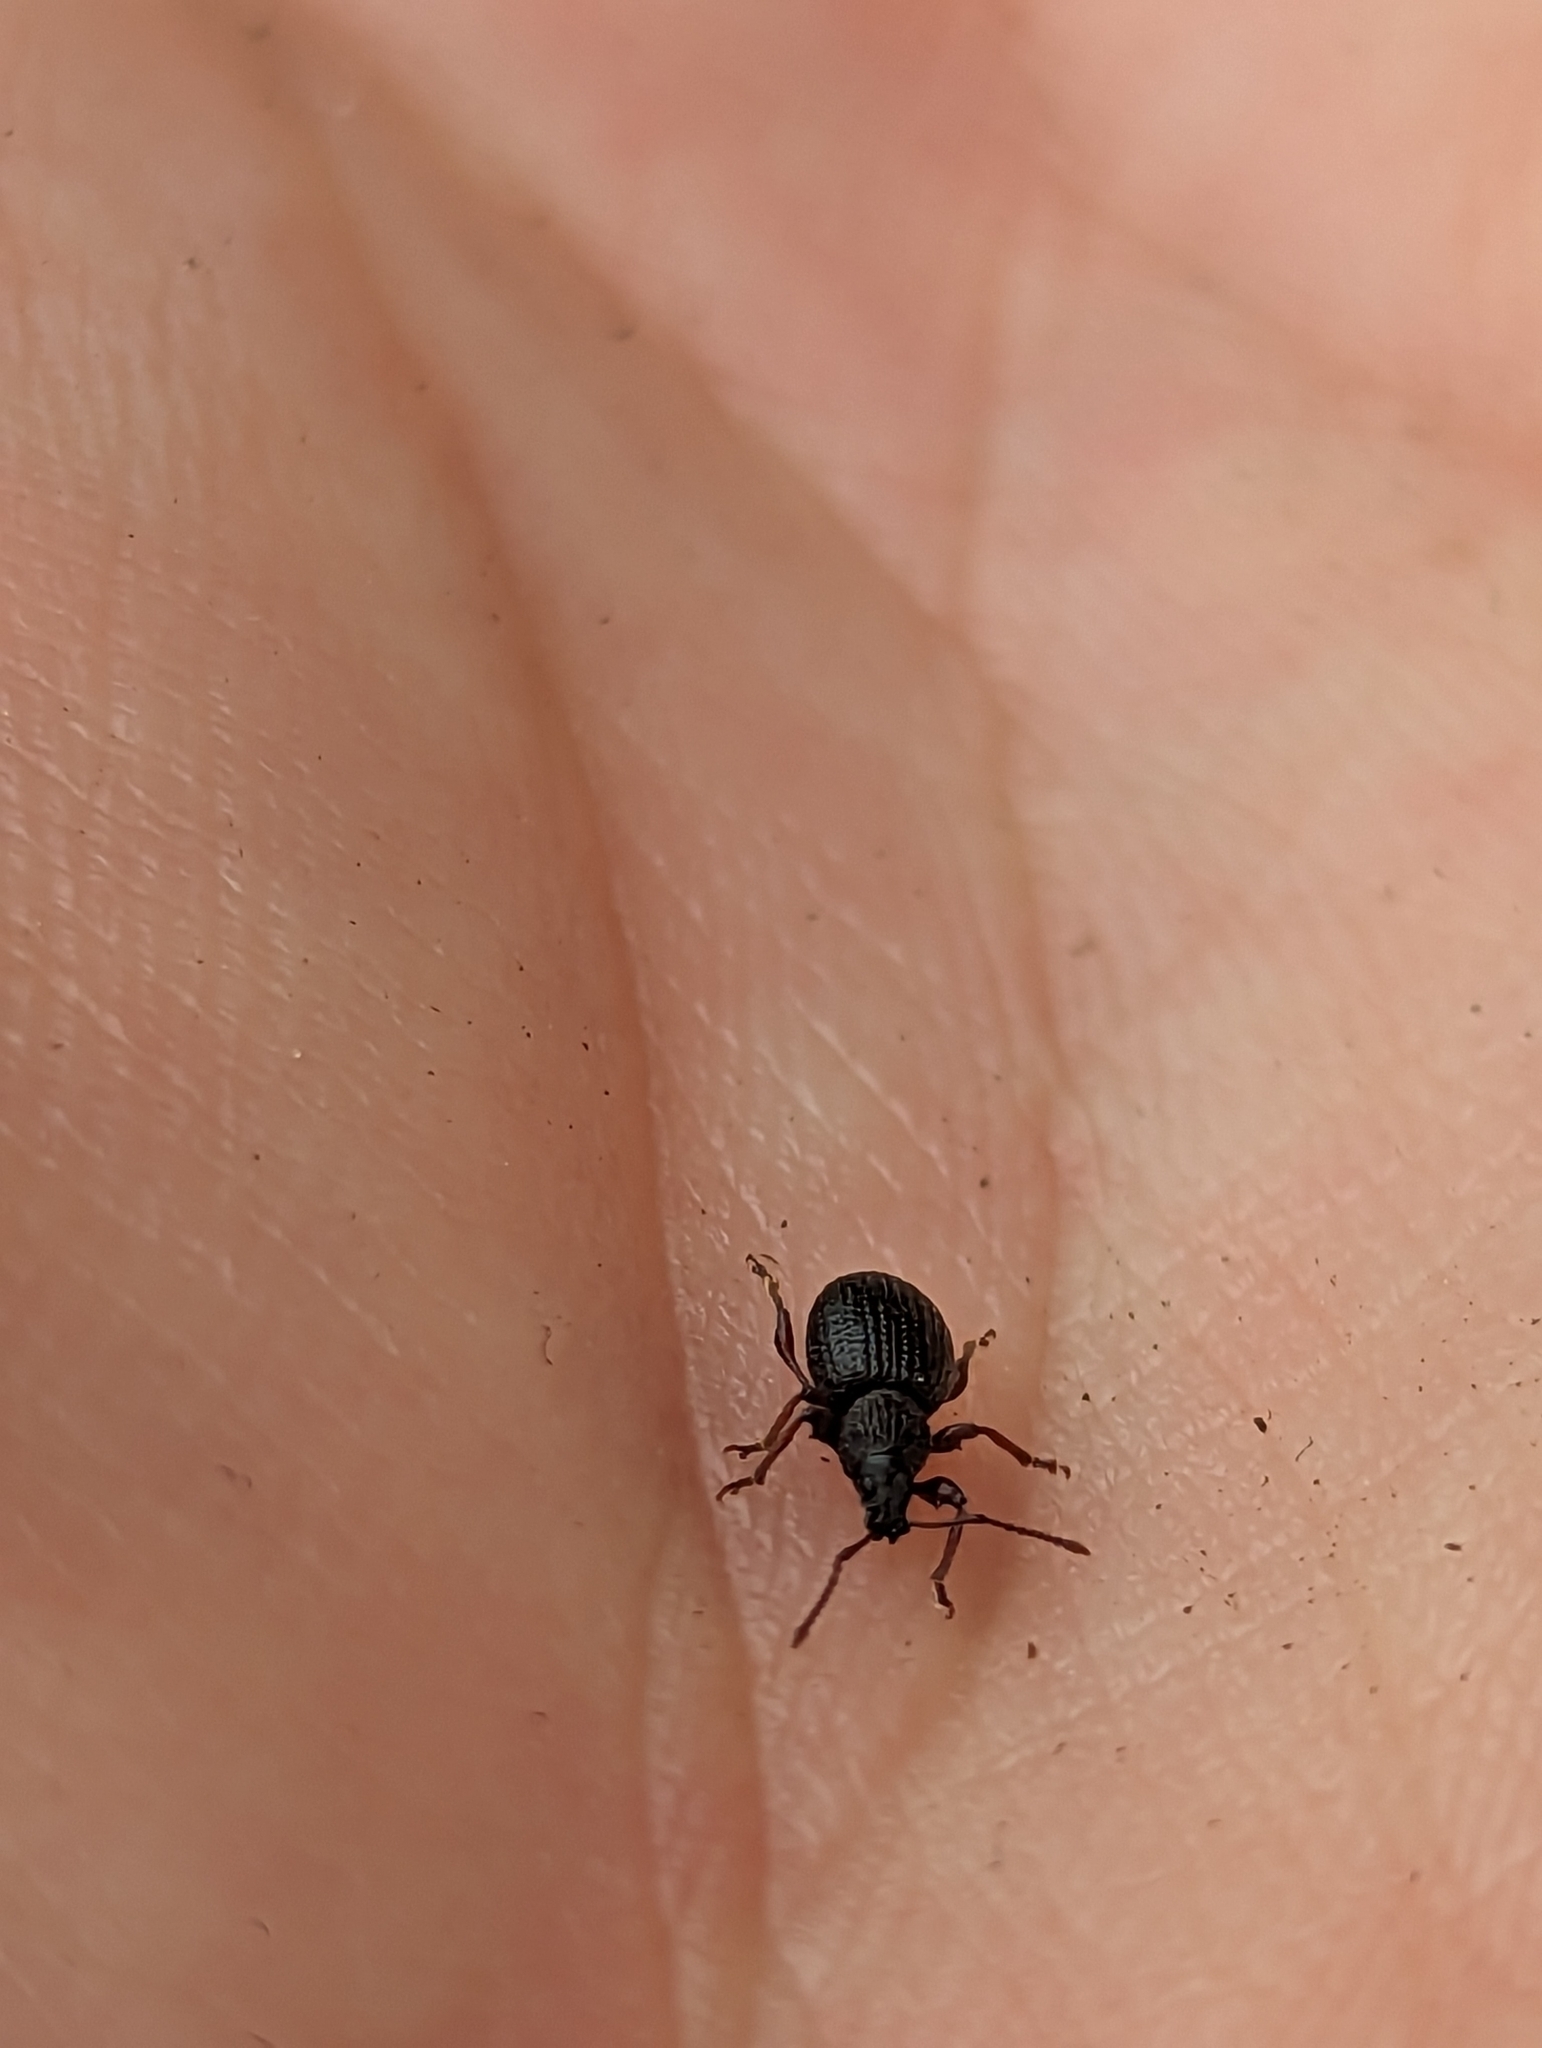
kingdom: Animalia
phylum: Arthropoda
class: Insecta
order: Coleoptera
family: Curculionidae
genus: Otiorhynchus
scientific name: Otiorhynchus ovatus
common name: Strawberry root weevil
